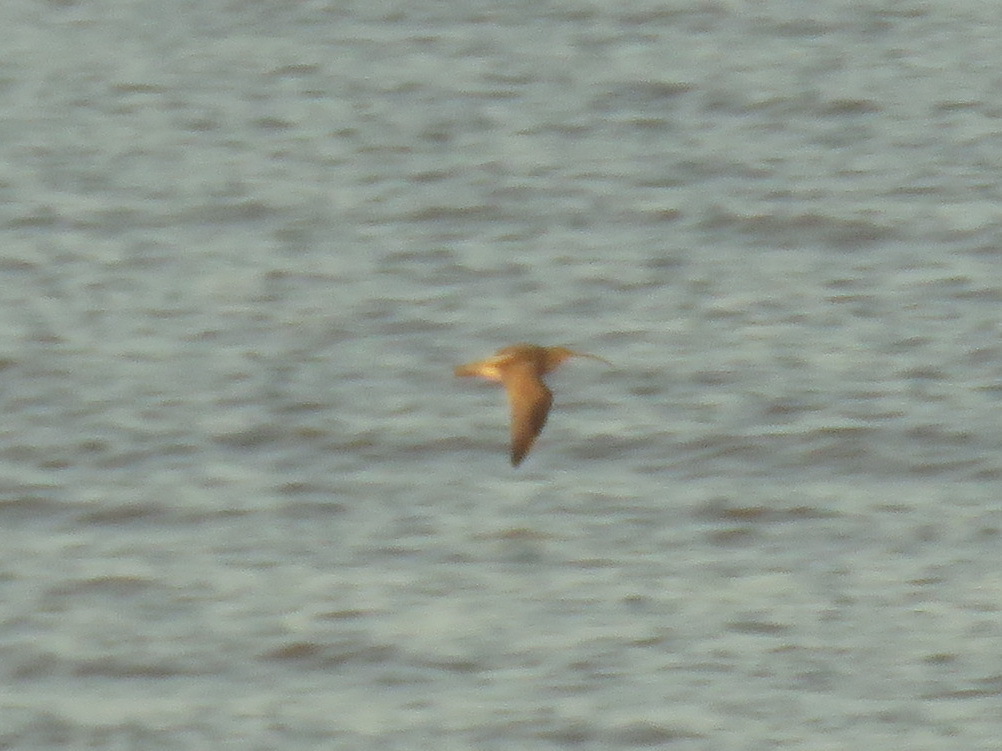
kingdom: Animalia
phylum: Chordata
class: Aves
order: Charadriiformes
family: Scolopacidae
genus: Numenius
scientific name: Numenius arquata
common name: Eurasian curlew
